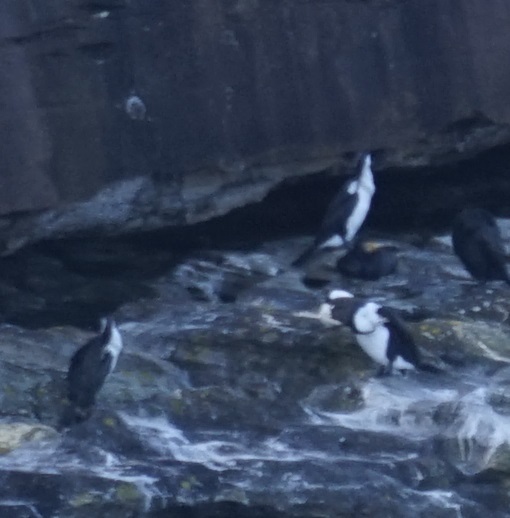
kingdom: Animalia
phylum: Chordata
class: Aves
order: Suliformes
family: Phalacrocoracidae
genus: Phalacrocorax
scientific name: Phalacrocorax varius
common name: Pied cormorant
